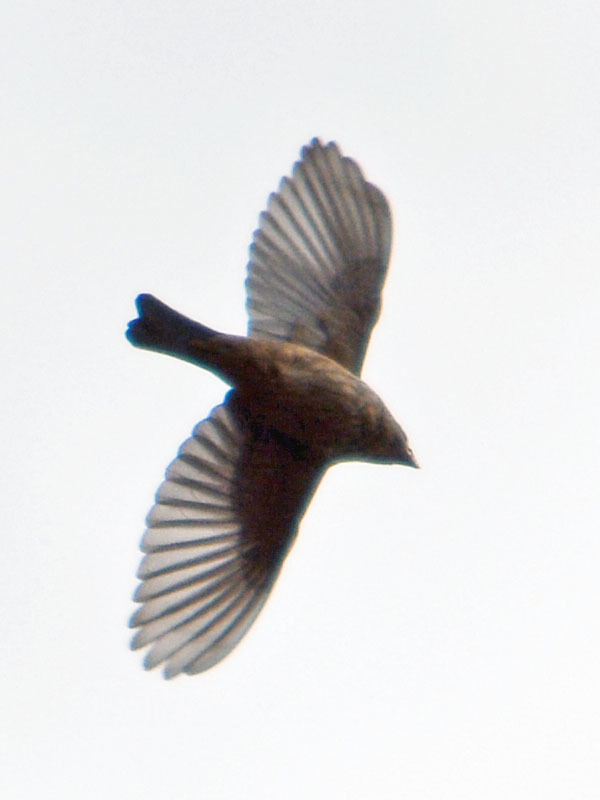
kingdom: Animalia
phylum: Chordata
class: Aves
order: Passeriformes
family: Fringillidae
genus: Haemorhous
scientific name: Haemorhous mexicanus
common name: House finch
